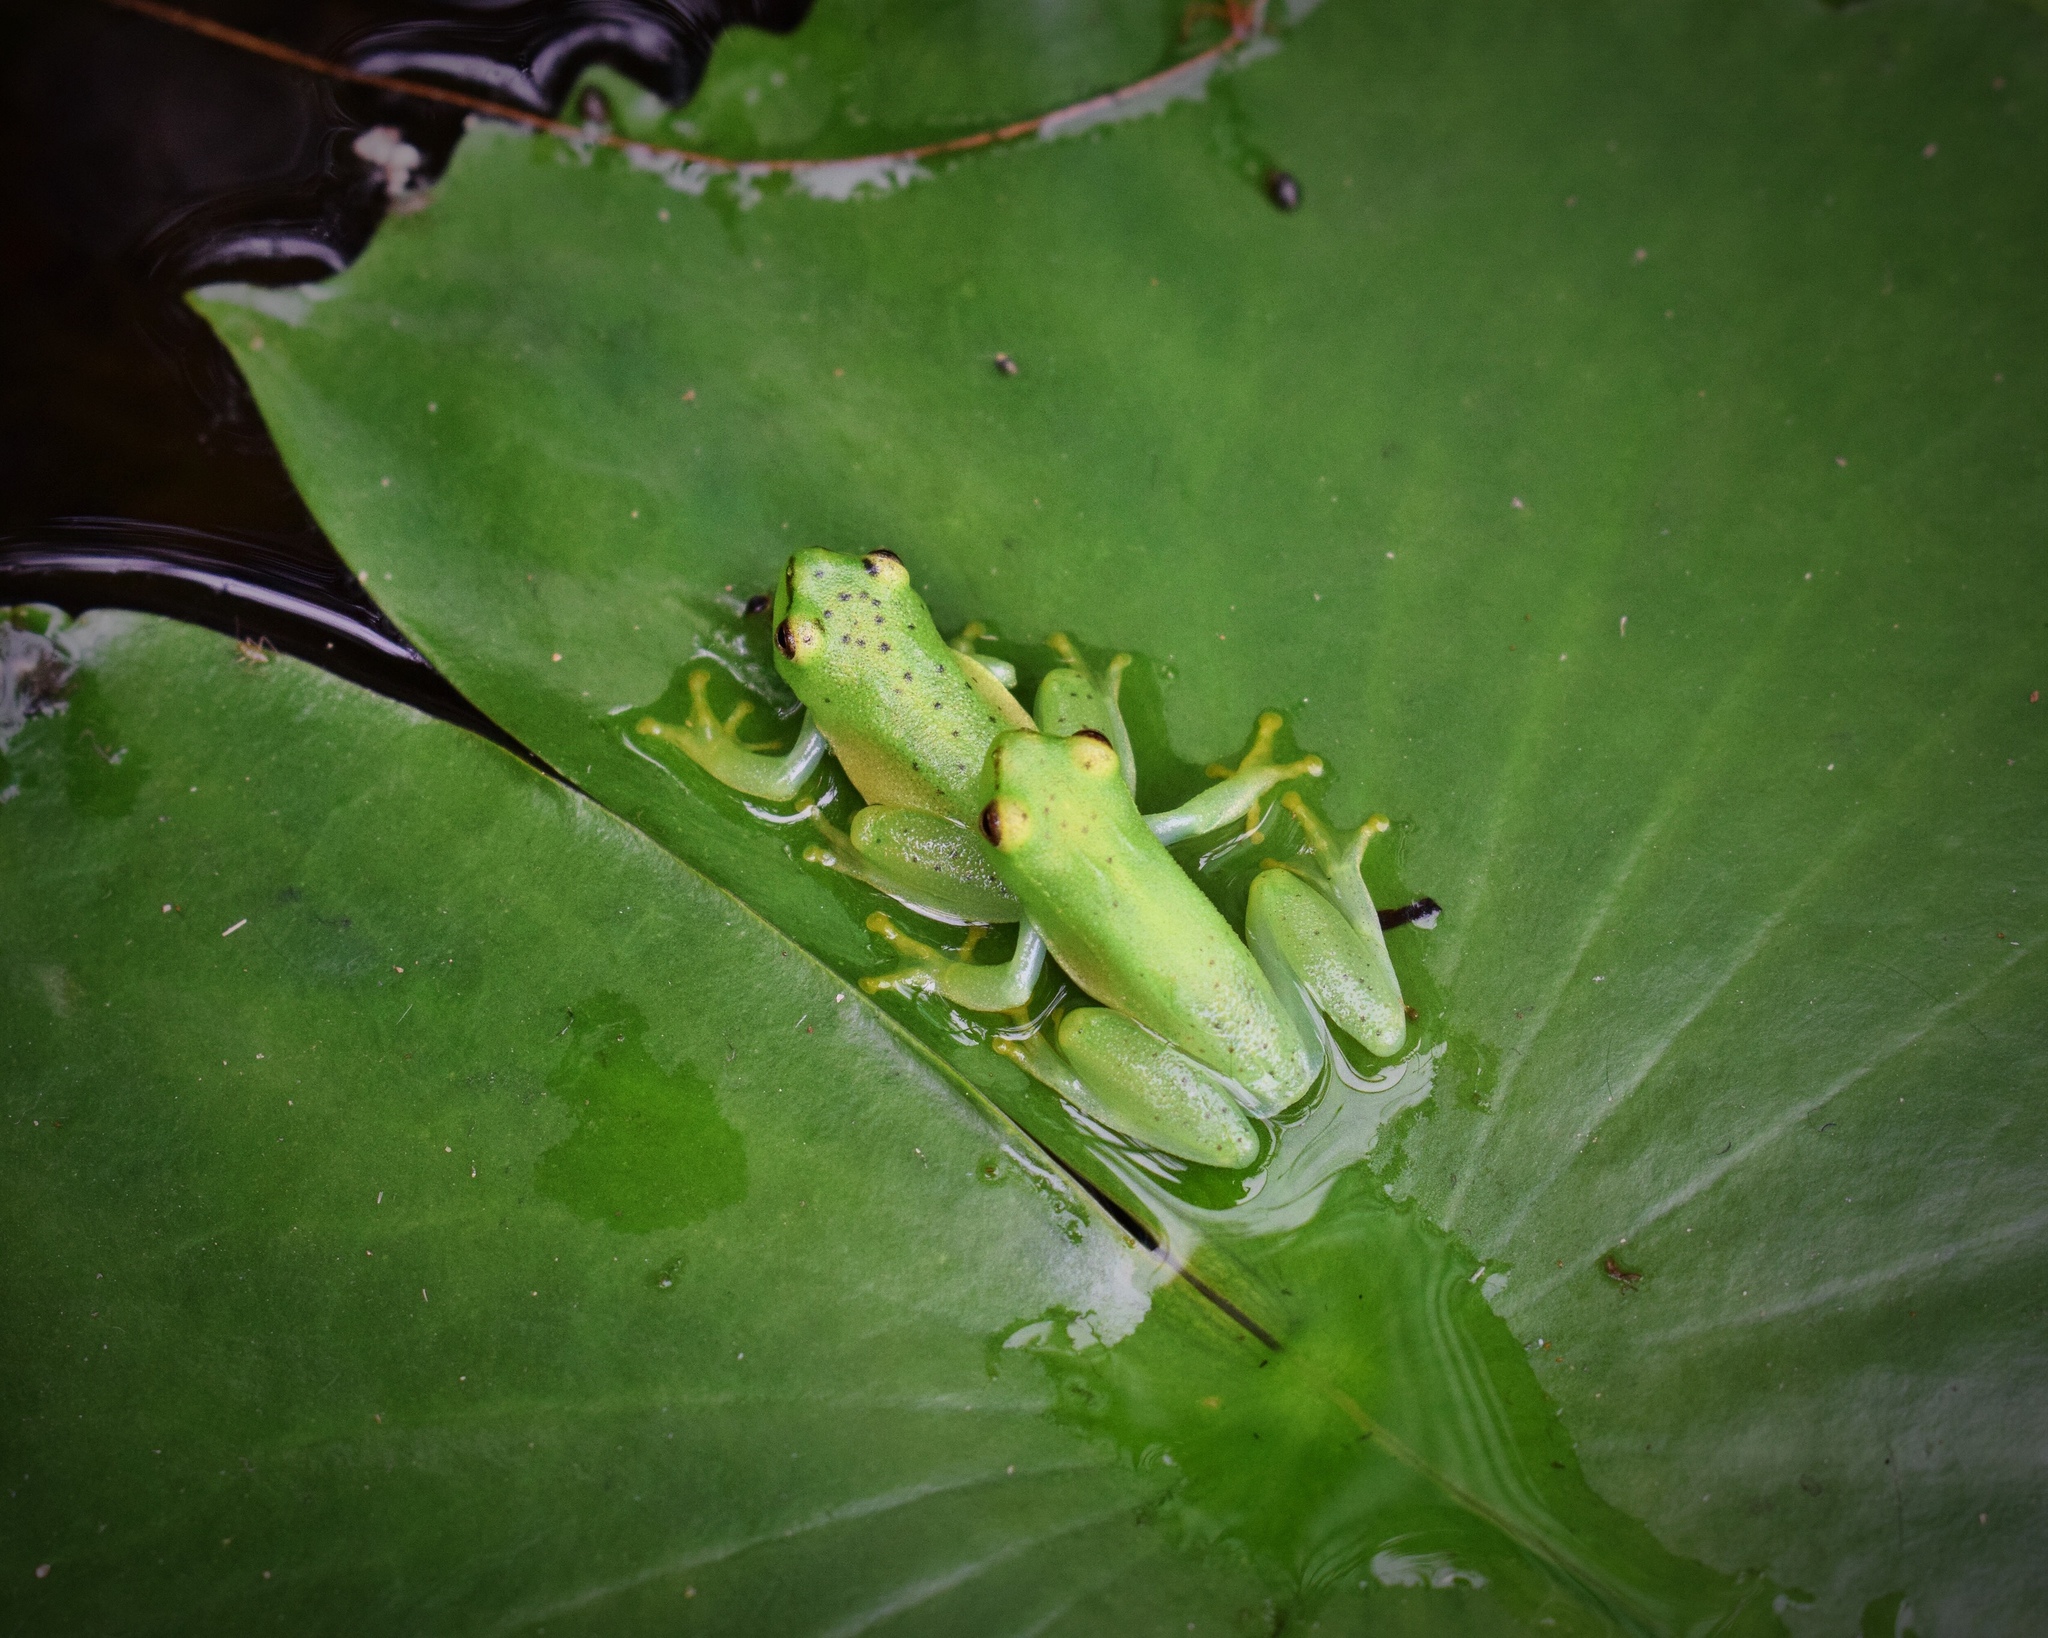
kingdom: Animalia
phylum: Chordata
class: Amphibia
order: Anura
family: Hyperoliidae
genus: Hyperolius
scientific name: Hyperolius pusillus
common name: Water lily reed frog
